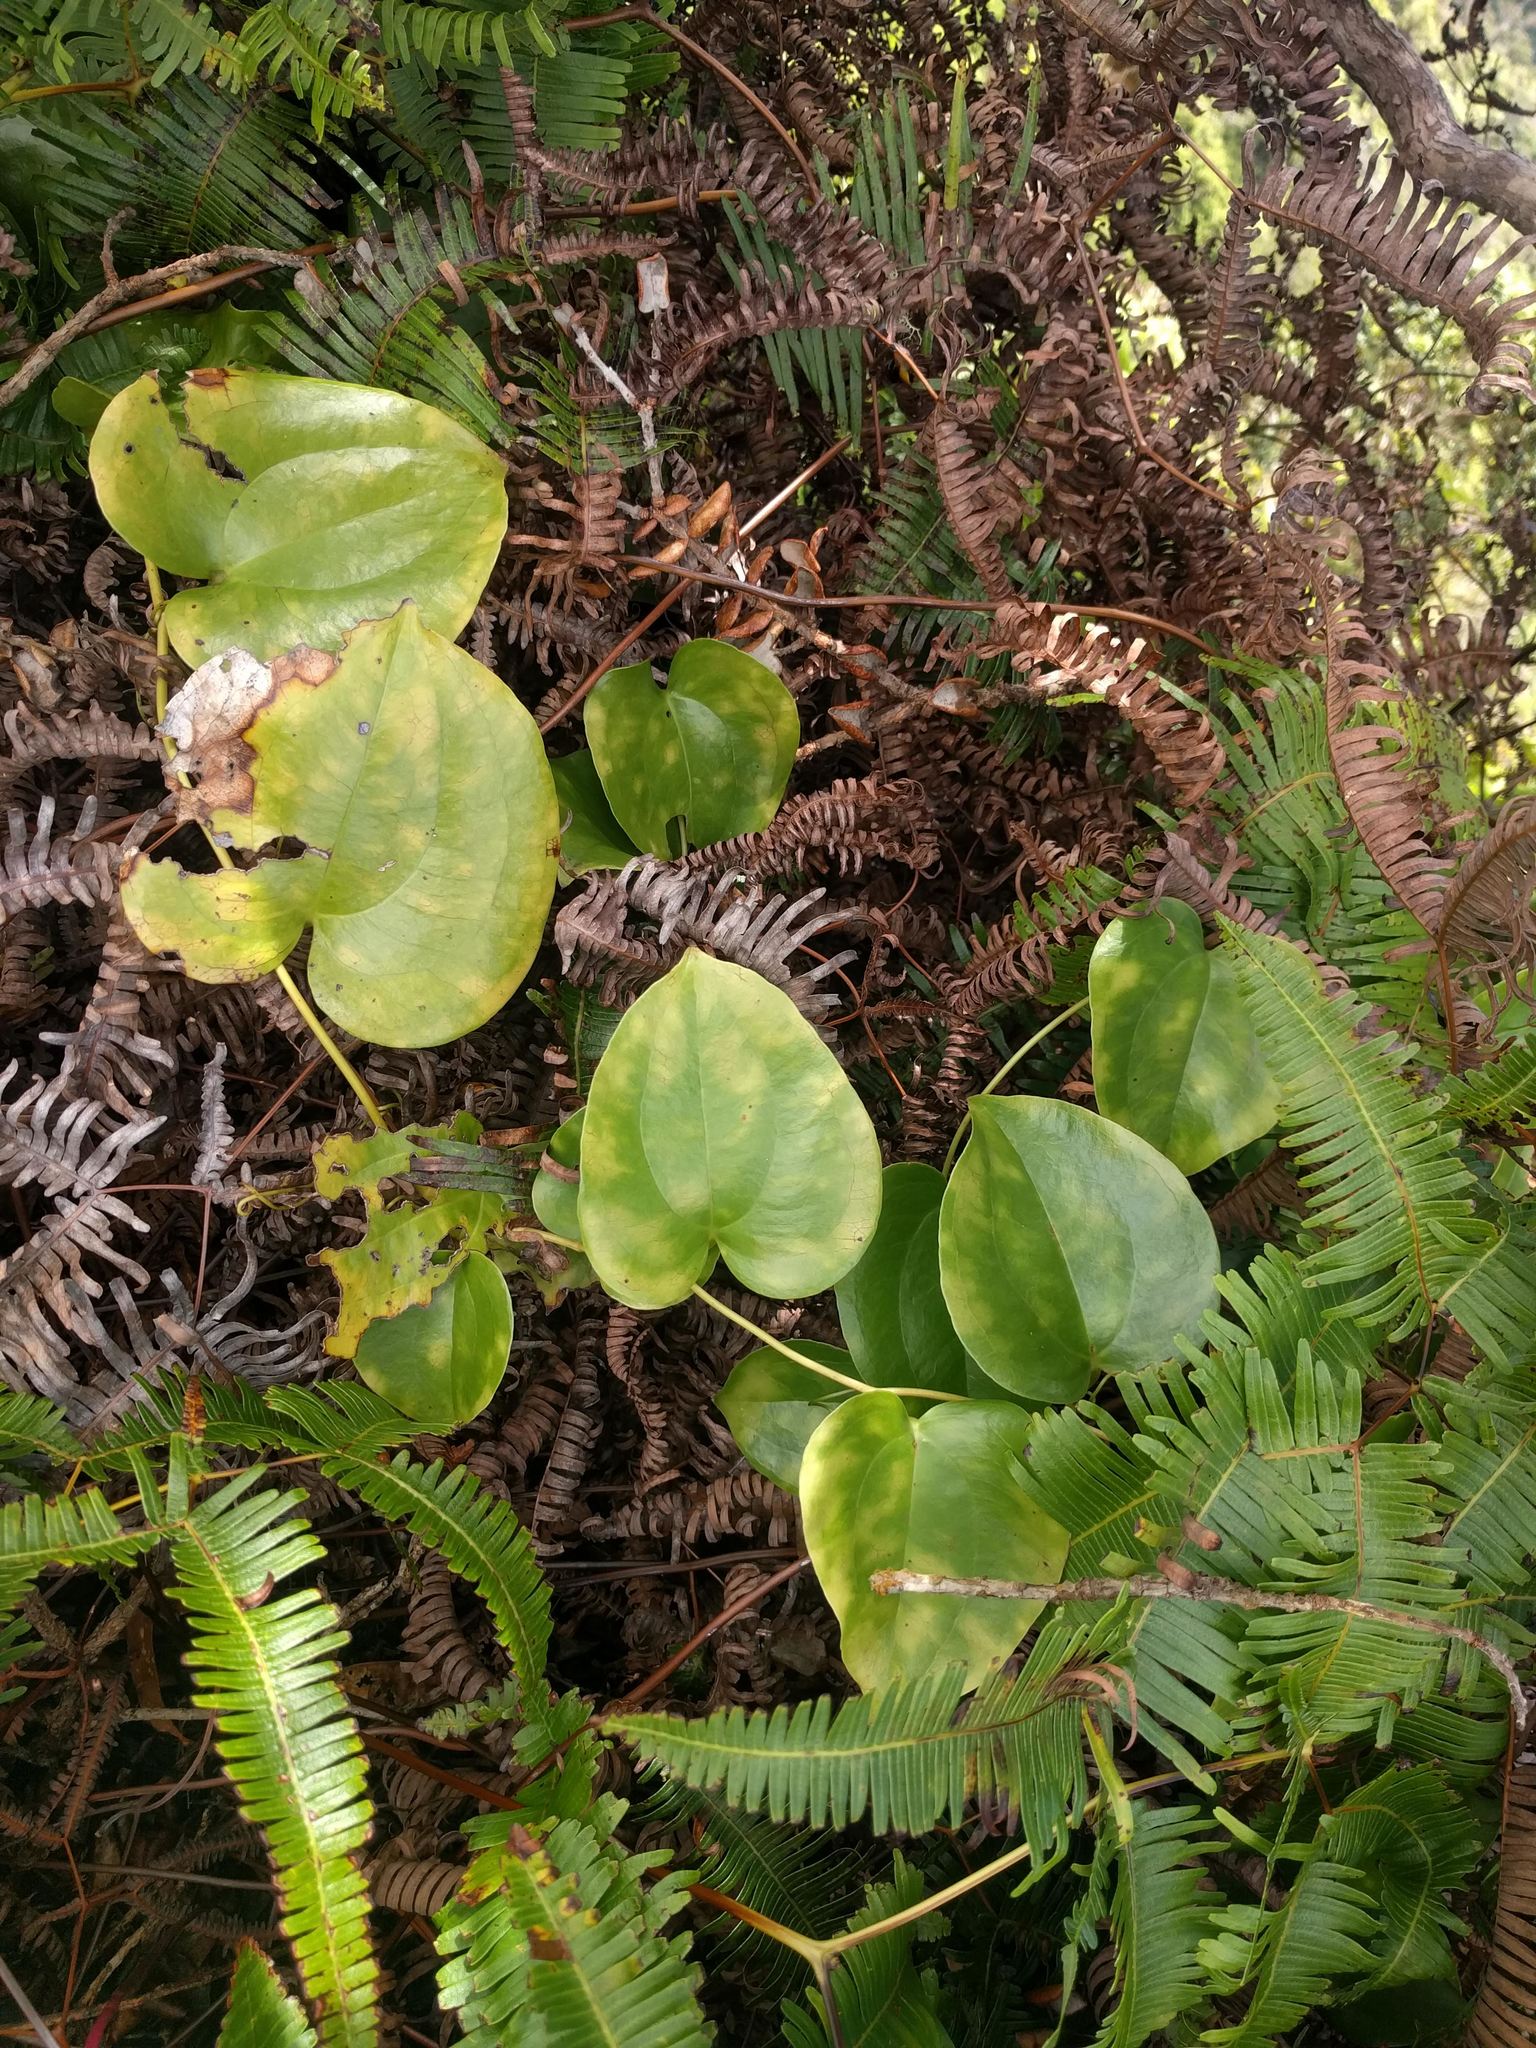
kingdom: Plantae
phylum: Tracheophyta
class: Liliopsida
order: Liliales
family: Smilacaceae
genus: Smilax
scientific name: Smilax melastomifolia
